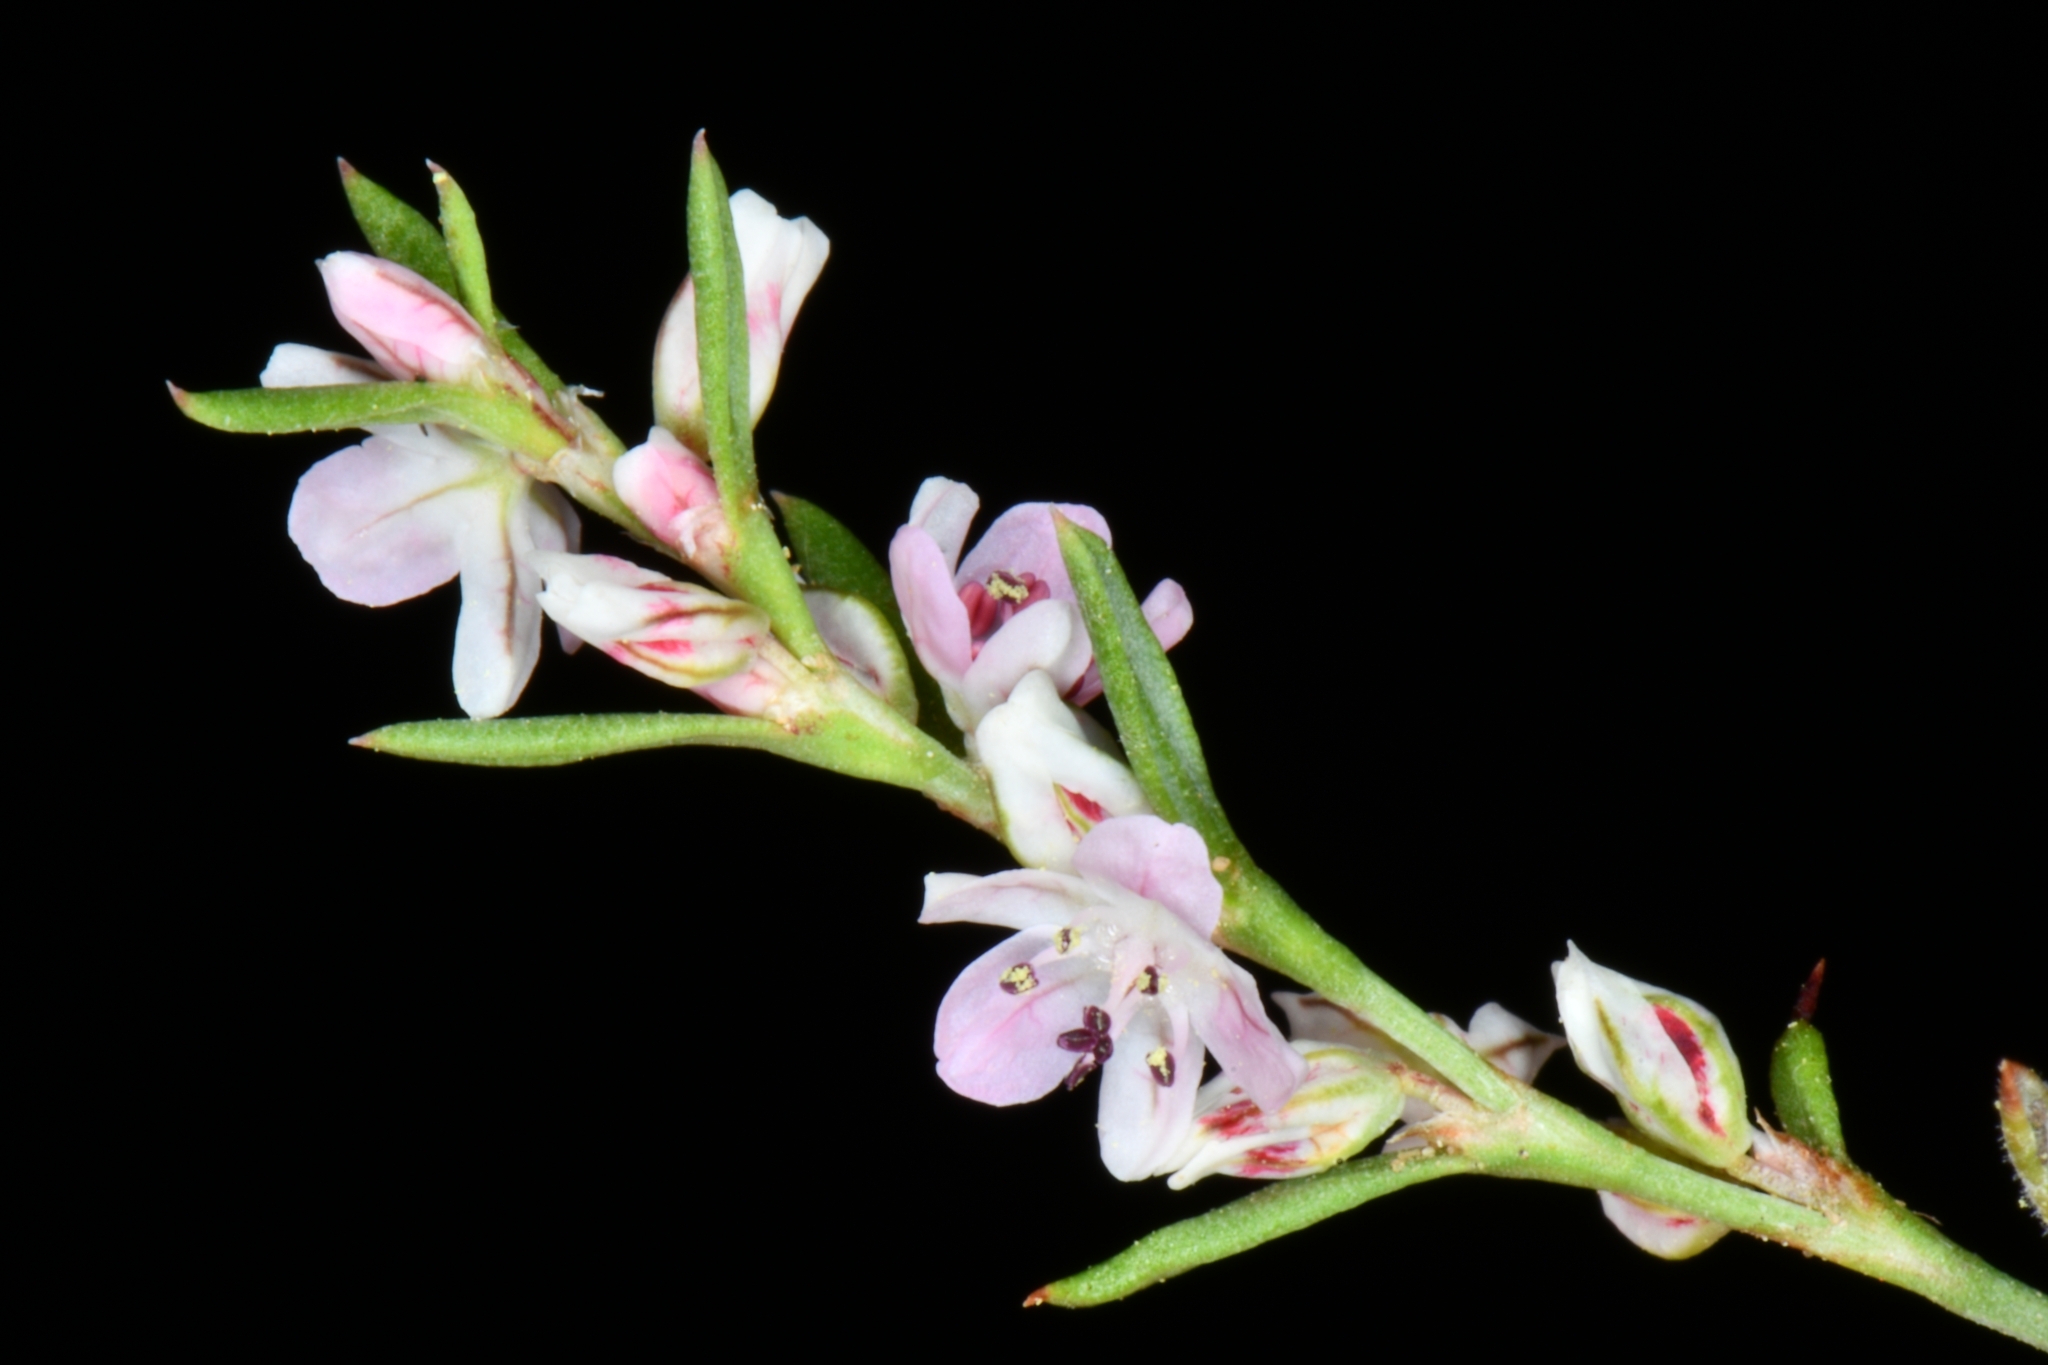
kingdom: Plantae
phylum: Tracheophyta
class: Magnoliopsida
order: Caryophyllales
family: Polygonaceae
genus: Polygonum
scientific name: Polygonum sawatchense
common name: Sawatch knotweed
